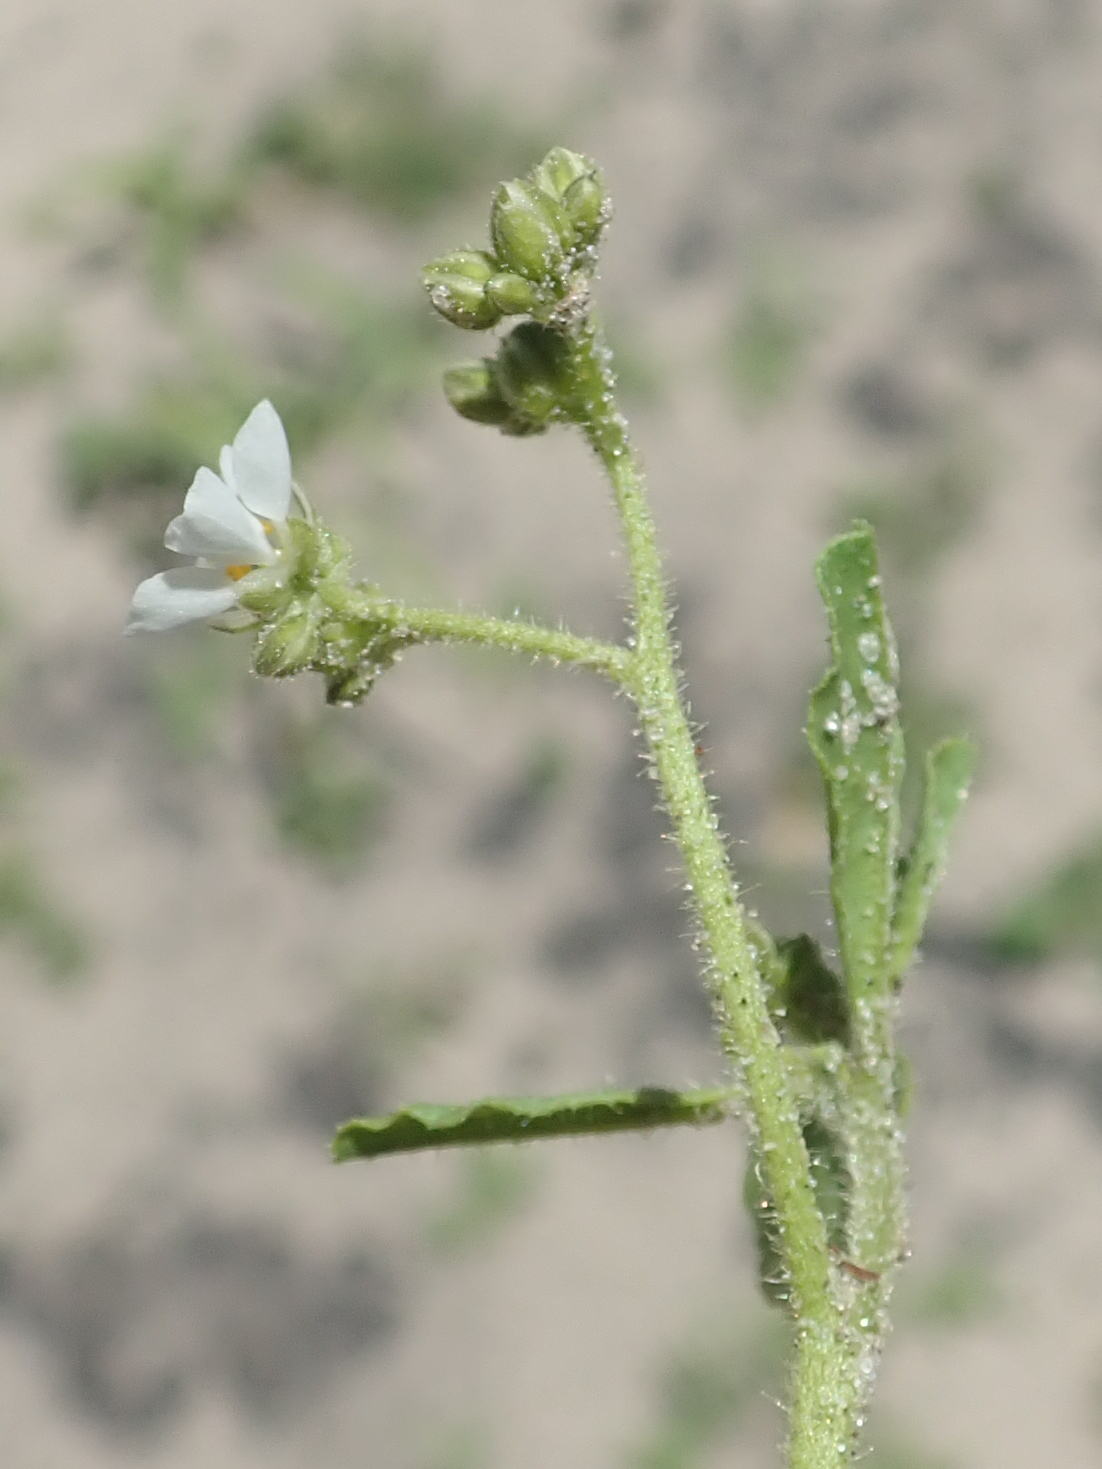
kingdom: Plantae
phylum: Tracheophyta
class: Magnoliopsida
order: Caryophyllales
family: Limeaceae
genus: Limeum
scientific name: Limeum viscosum
